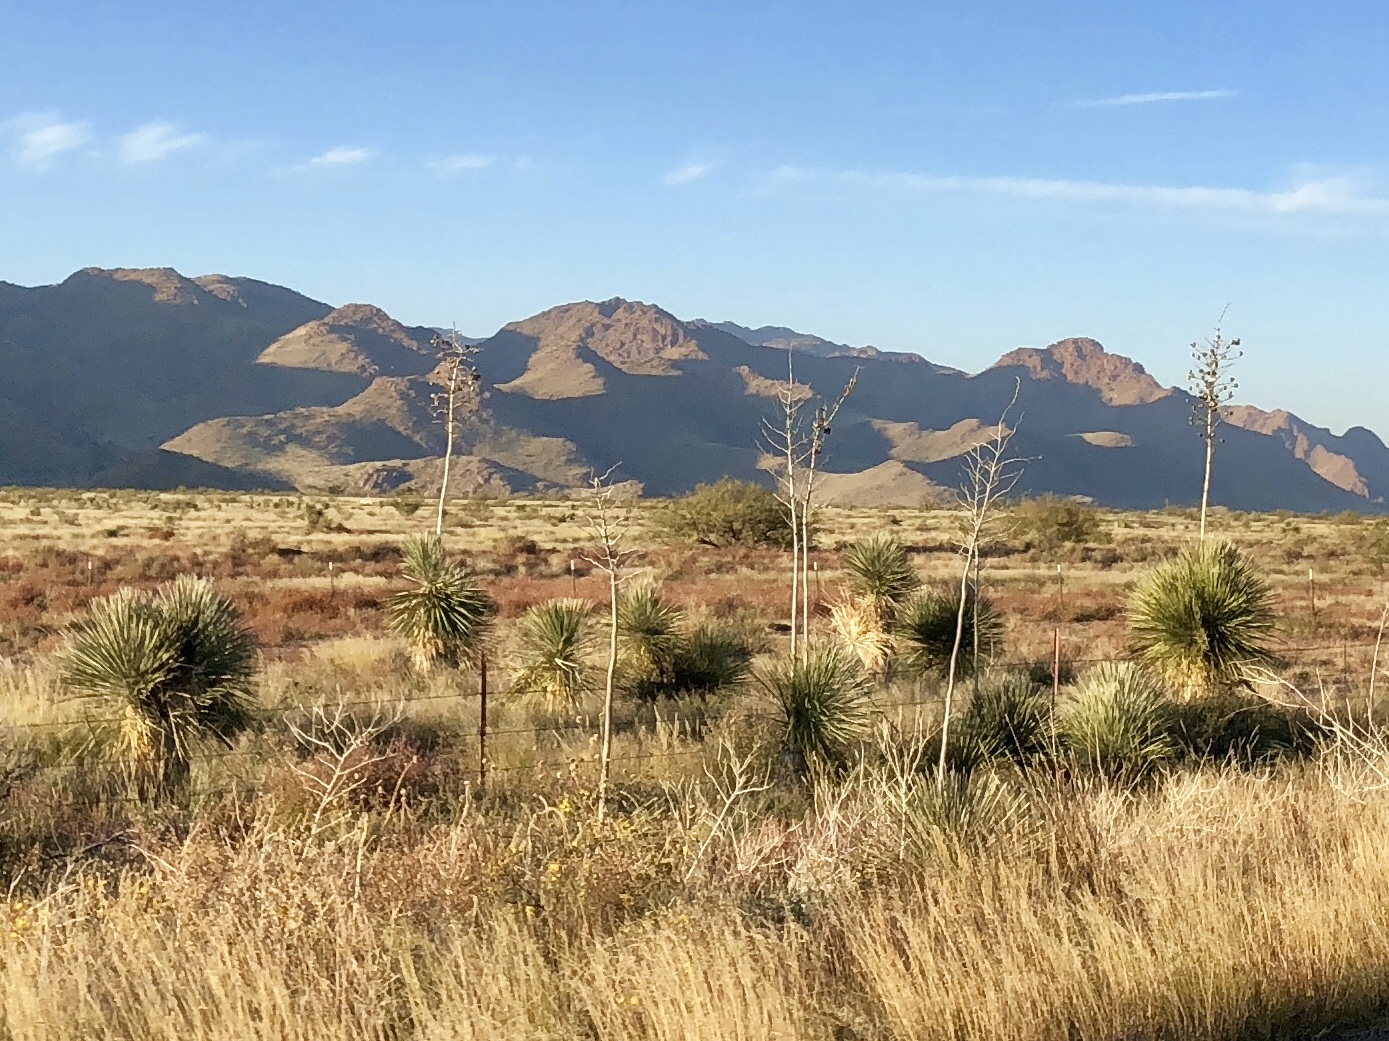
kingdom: Plantae
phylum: Tracheophyta
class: Liliopsida
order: Asparagales
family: Asparagaceae
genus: Yucca
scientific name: Yucca elata
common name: Palmella
